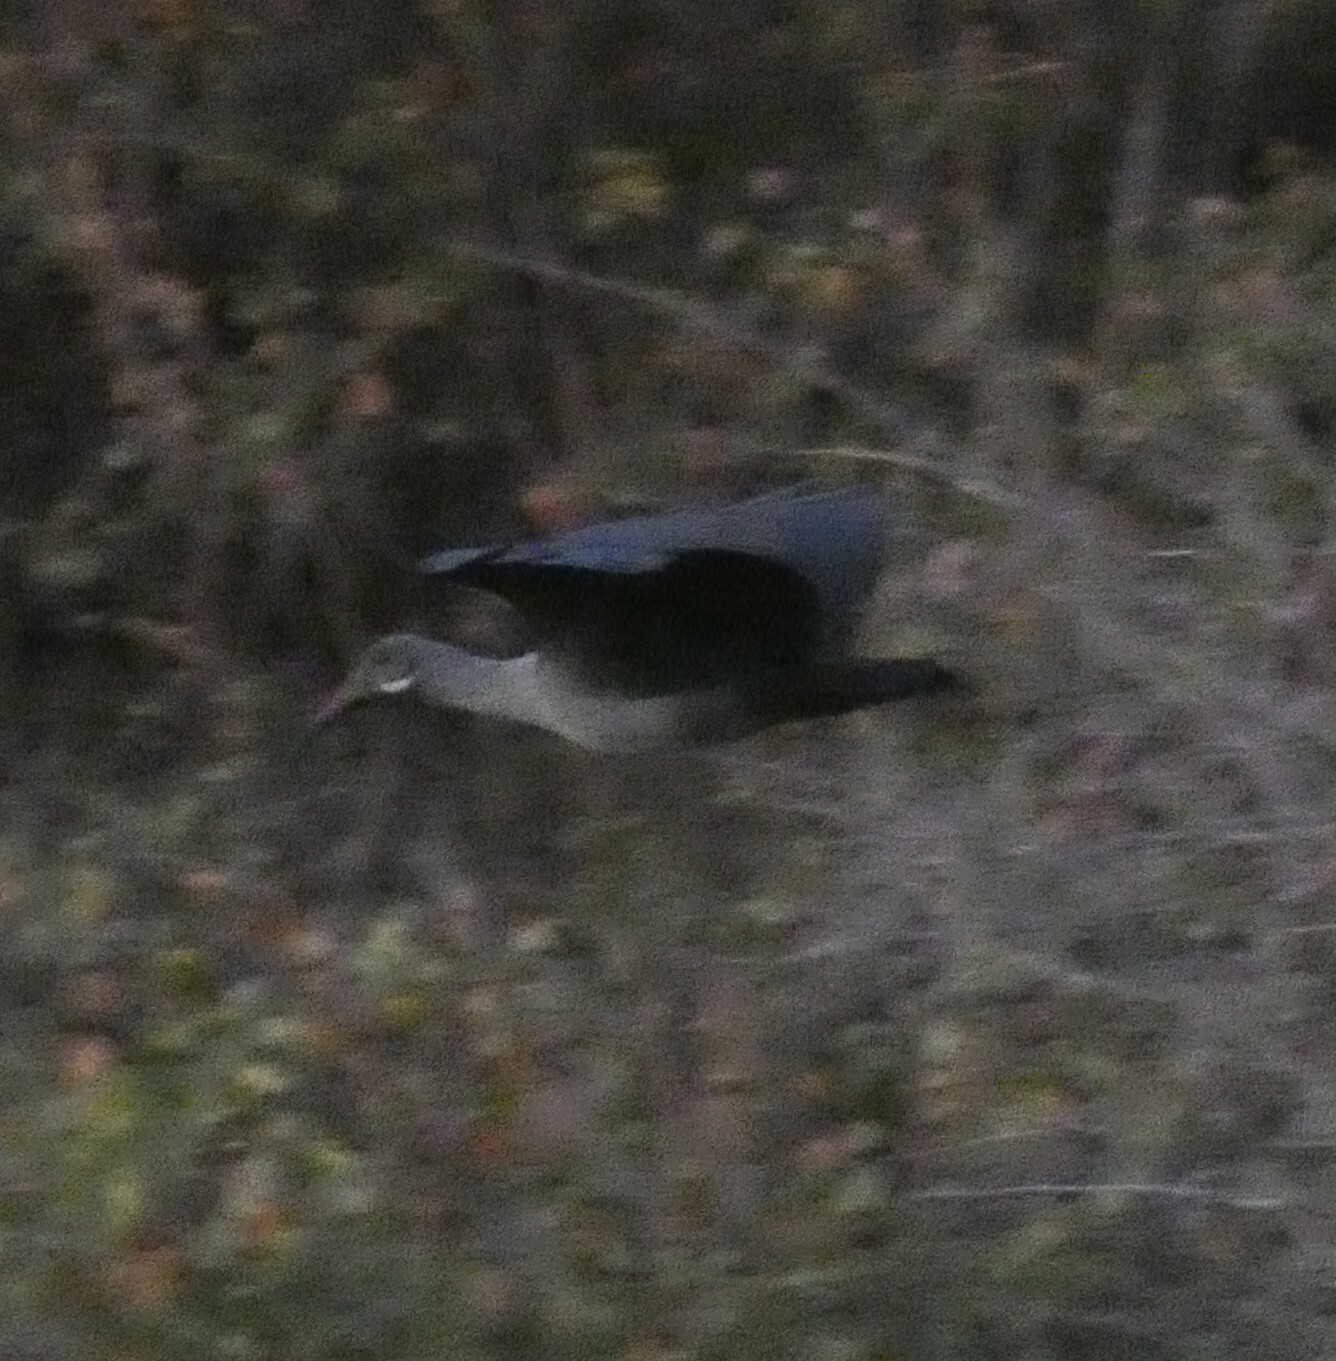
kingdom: Animalia
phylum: Chordata
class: Aves
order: Pelecaniformes
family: Threskiornithidae
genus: Bostrychia
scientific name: Bostrychia hagedash
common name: Hadada ibis
